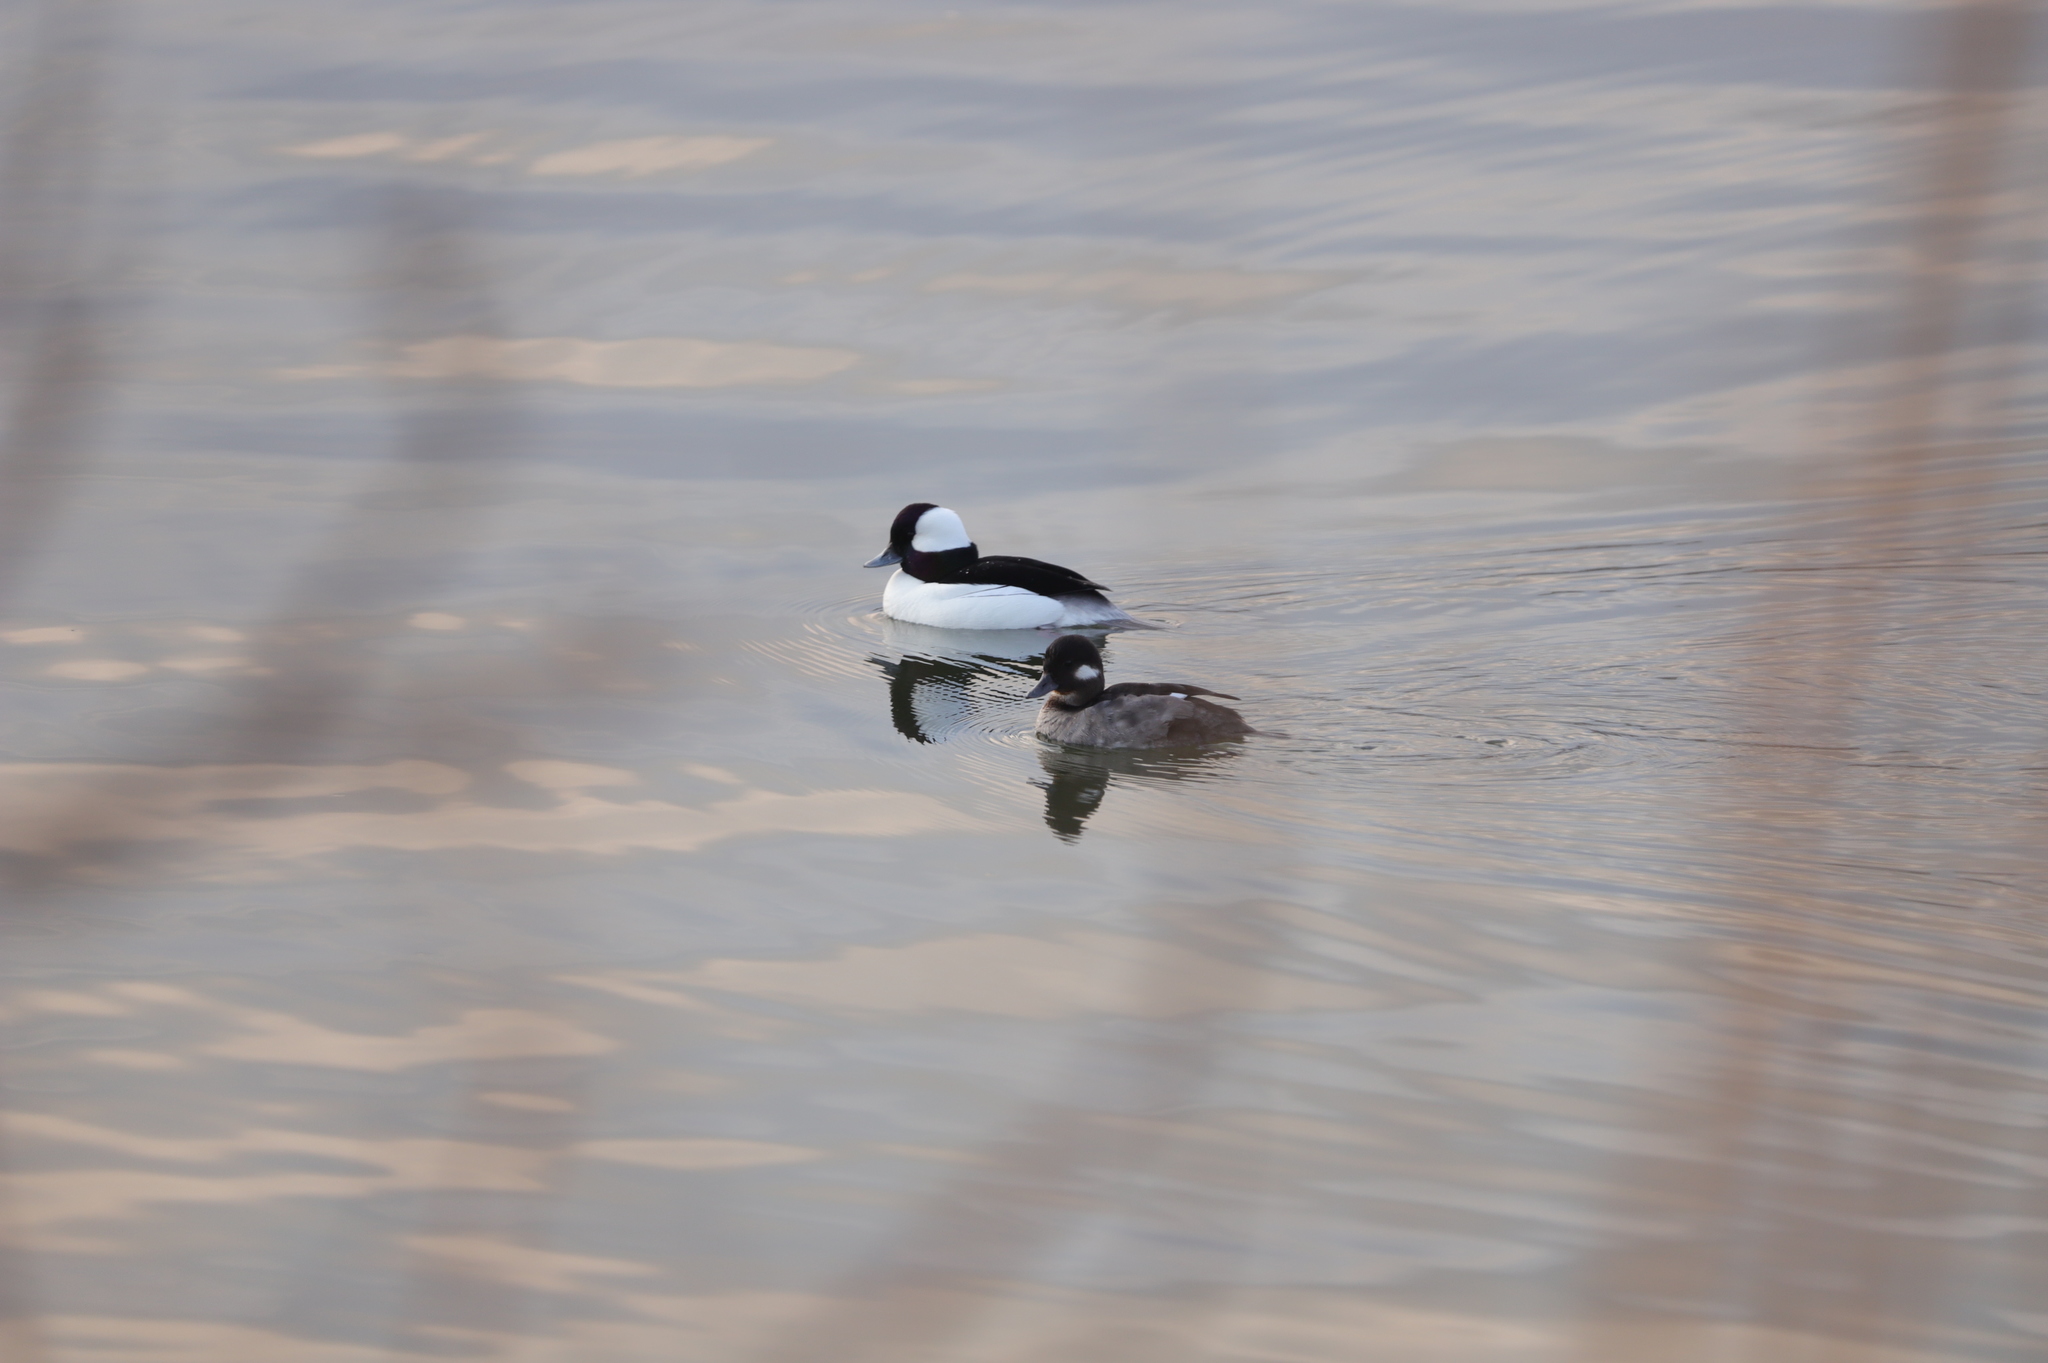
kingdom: Animalia
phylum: Chordata
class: Aves
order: Anseriformes
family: Anatidae
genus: Bucephala
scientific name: Bucephala albeola
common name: Bufflehead
